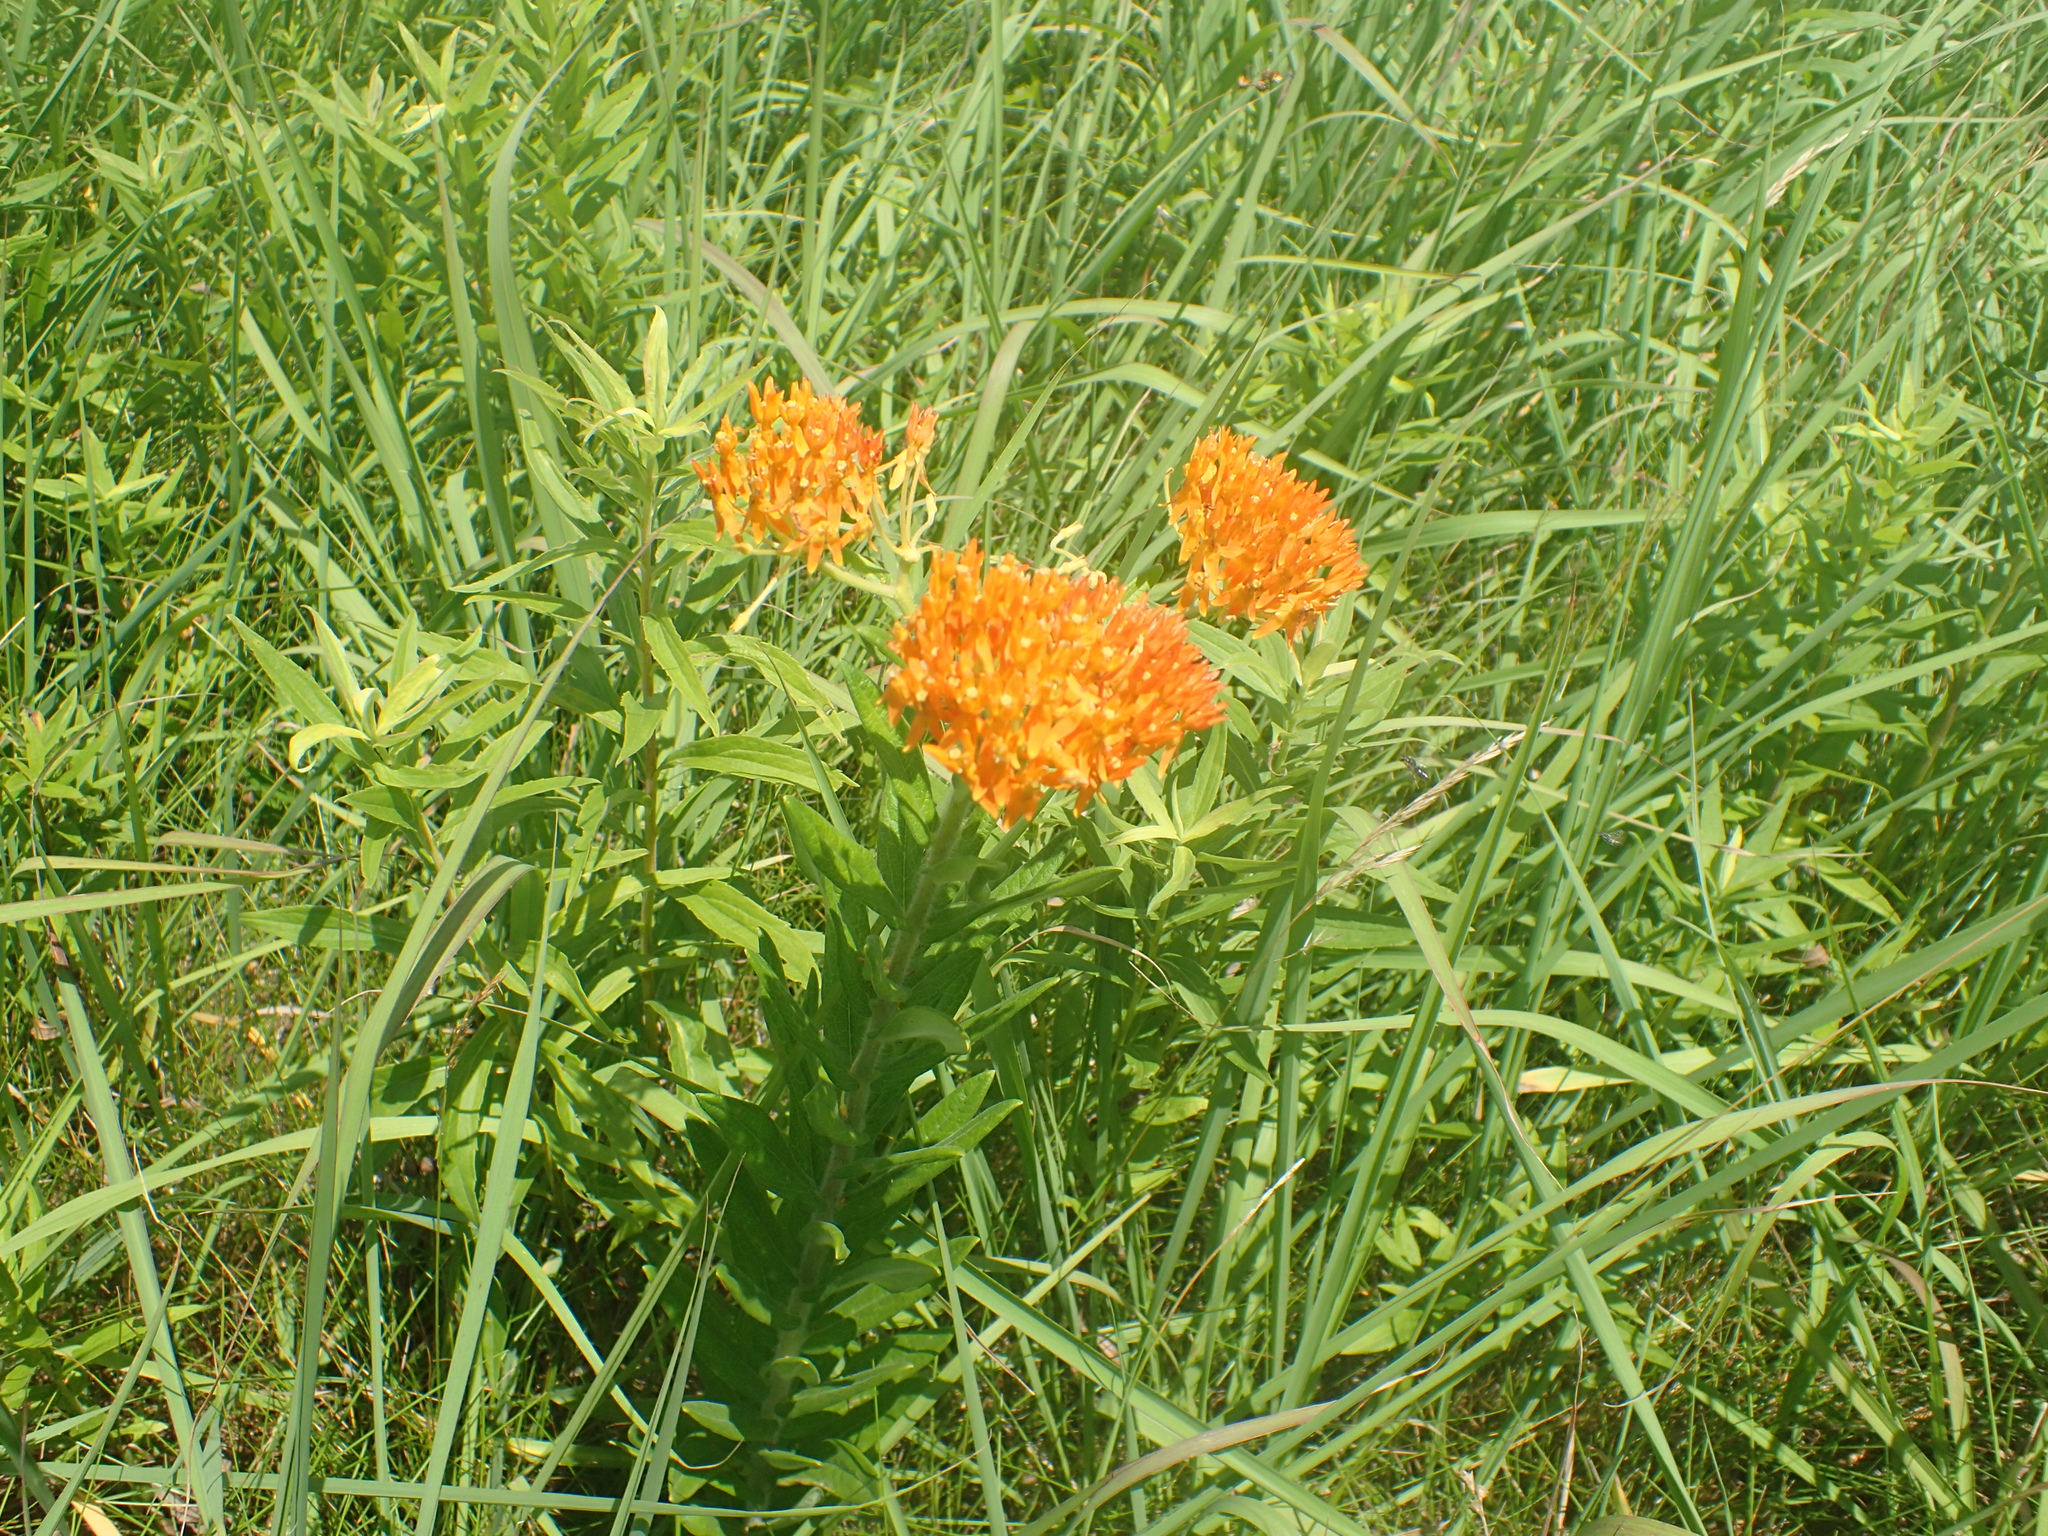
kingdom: Plantae
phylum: Tracheophyta
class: Magnoliopsida
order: Gentianales
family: Apocynaceae
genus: Asclepias
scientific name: Asclepias tuberosa
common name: Butterfly milkweed
